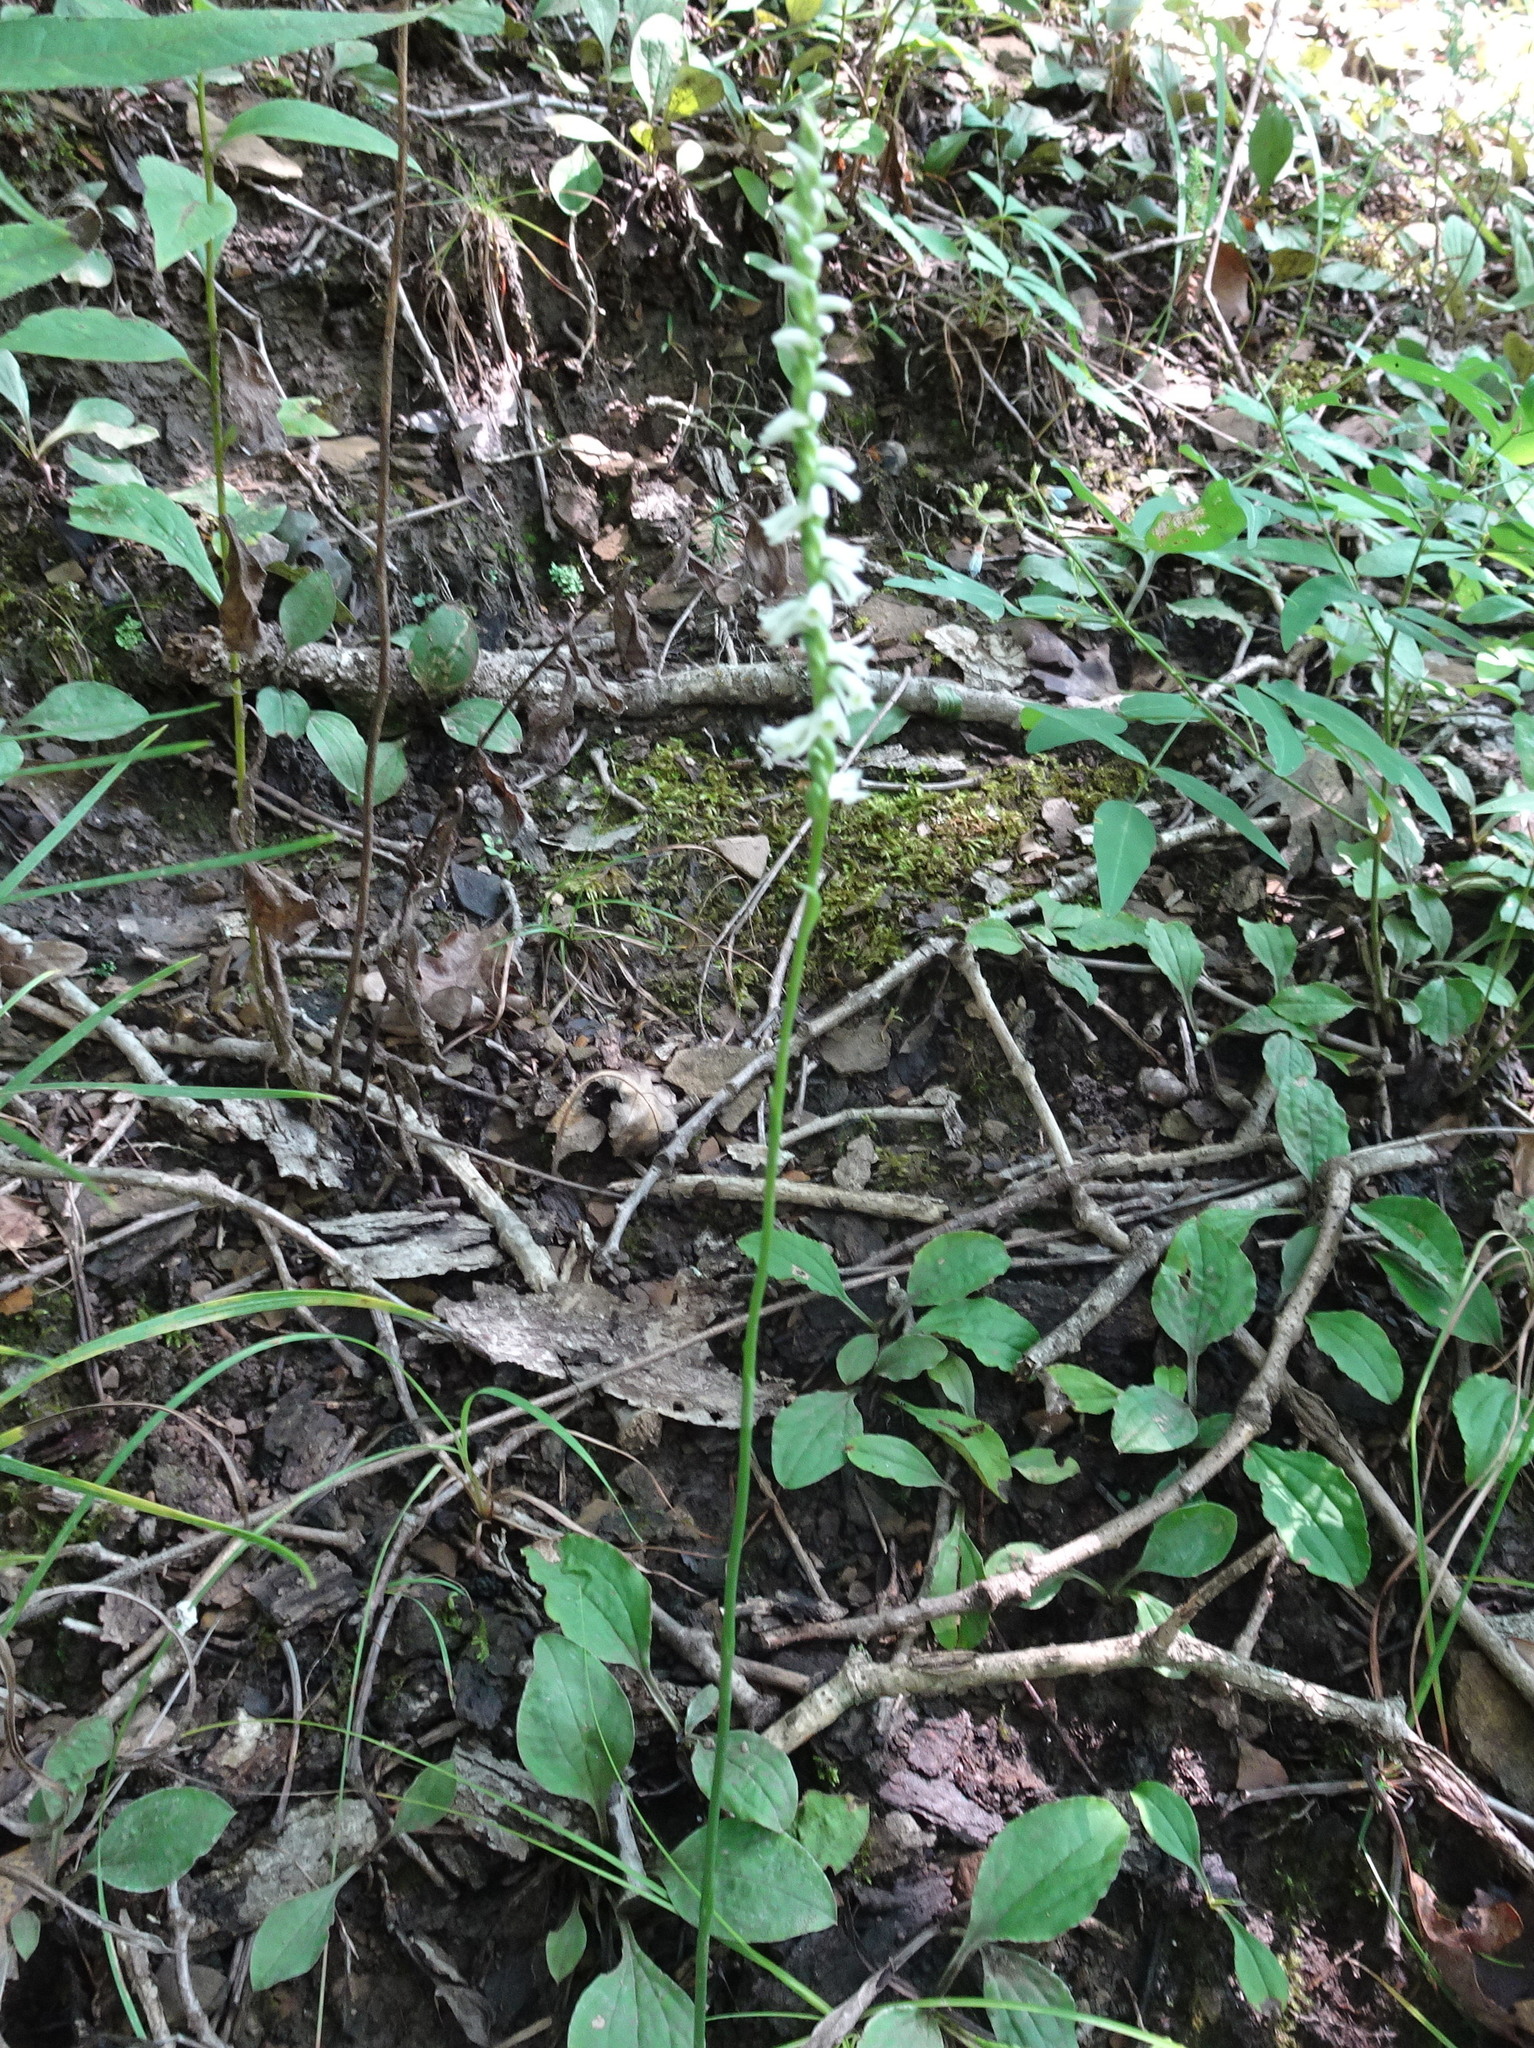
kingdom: Plantae
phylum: Tracheophyta
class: Liliopsida
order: Asparagales
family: Orchidaceae
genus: Spiranthes
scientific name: Spiranthes lacera
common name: Northern slender ladies'-tresses
